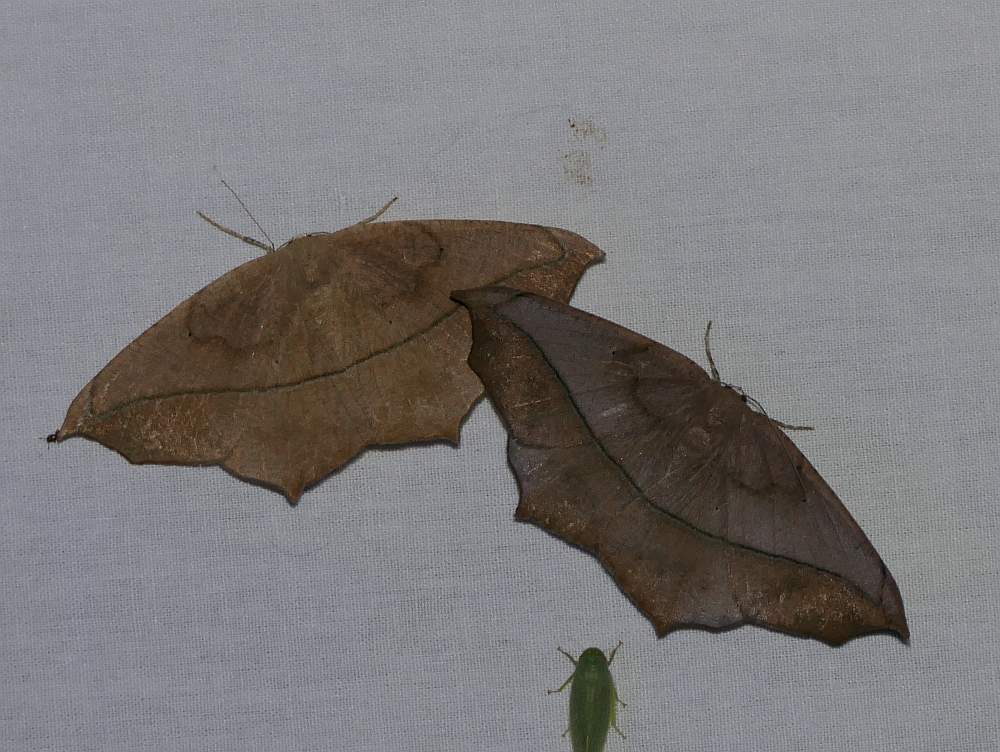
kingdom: Animalia
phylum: Arthropoda
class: Insecta
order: Lepidoptera
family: Geometridae
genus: Prochoerodes
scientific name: Prochoerodes lineola
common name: Large maple spanworm
